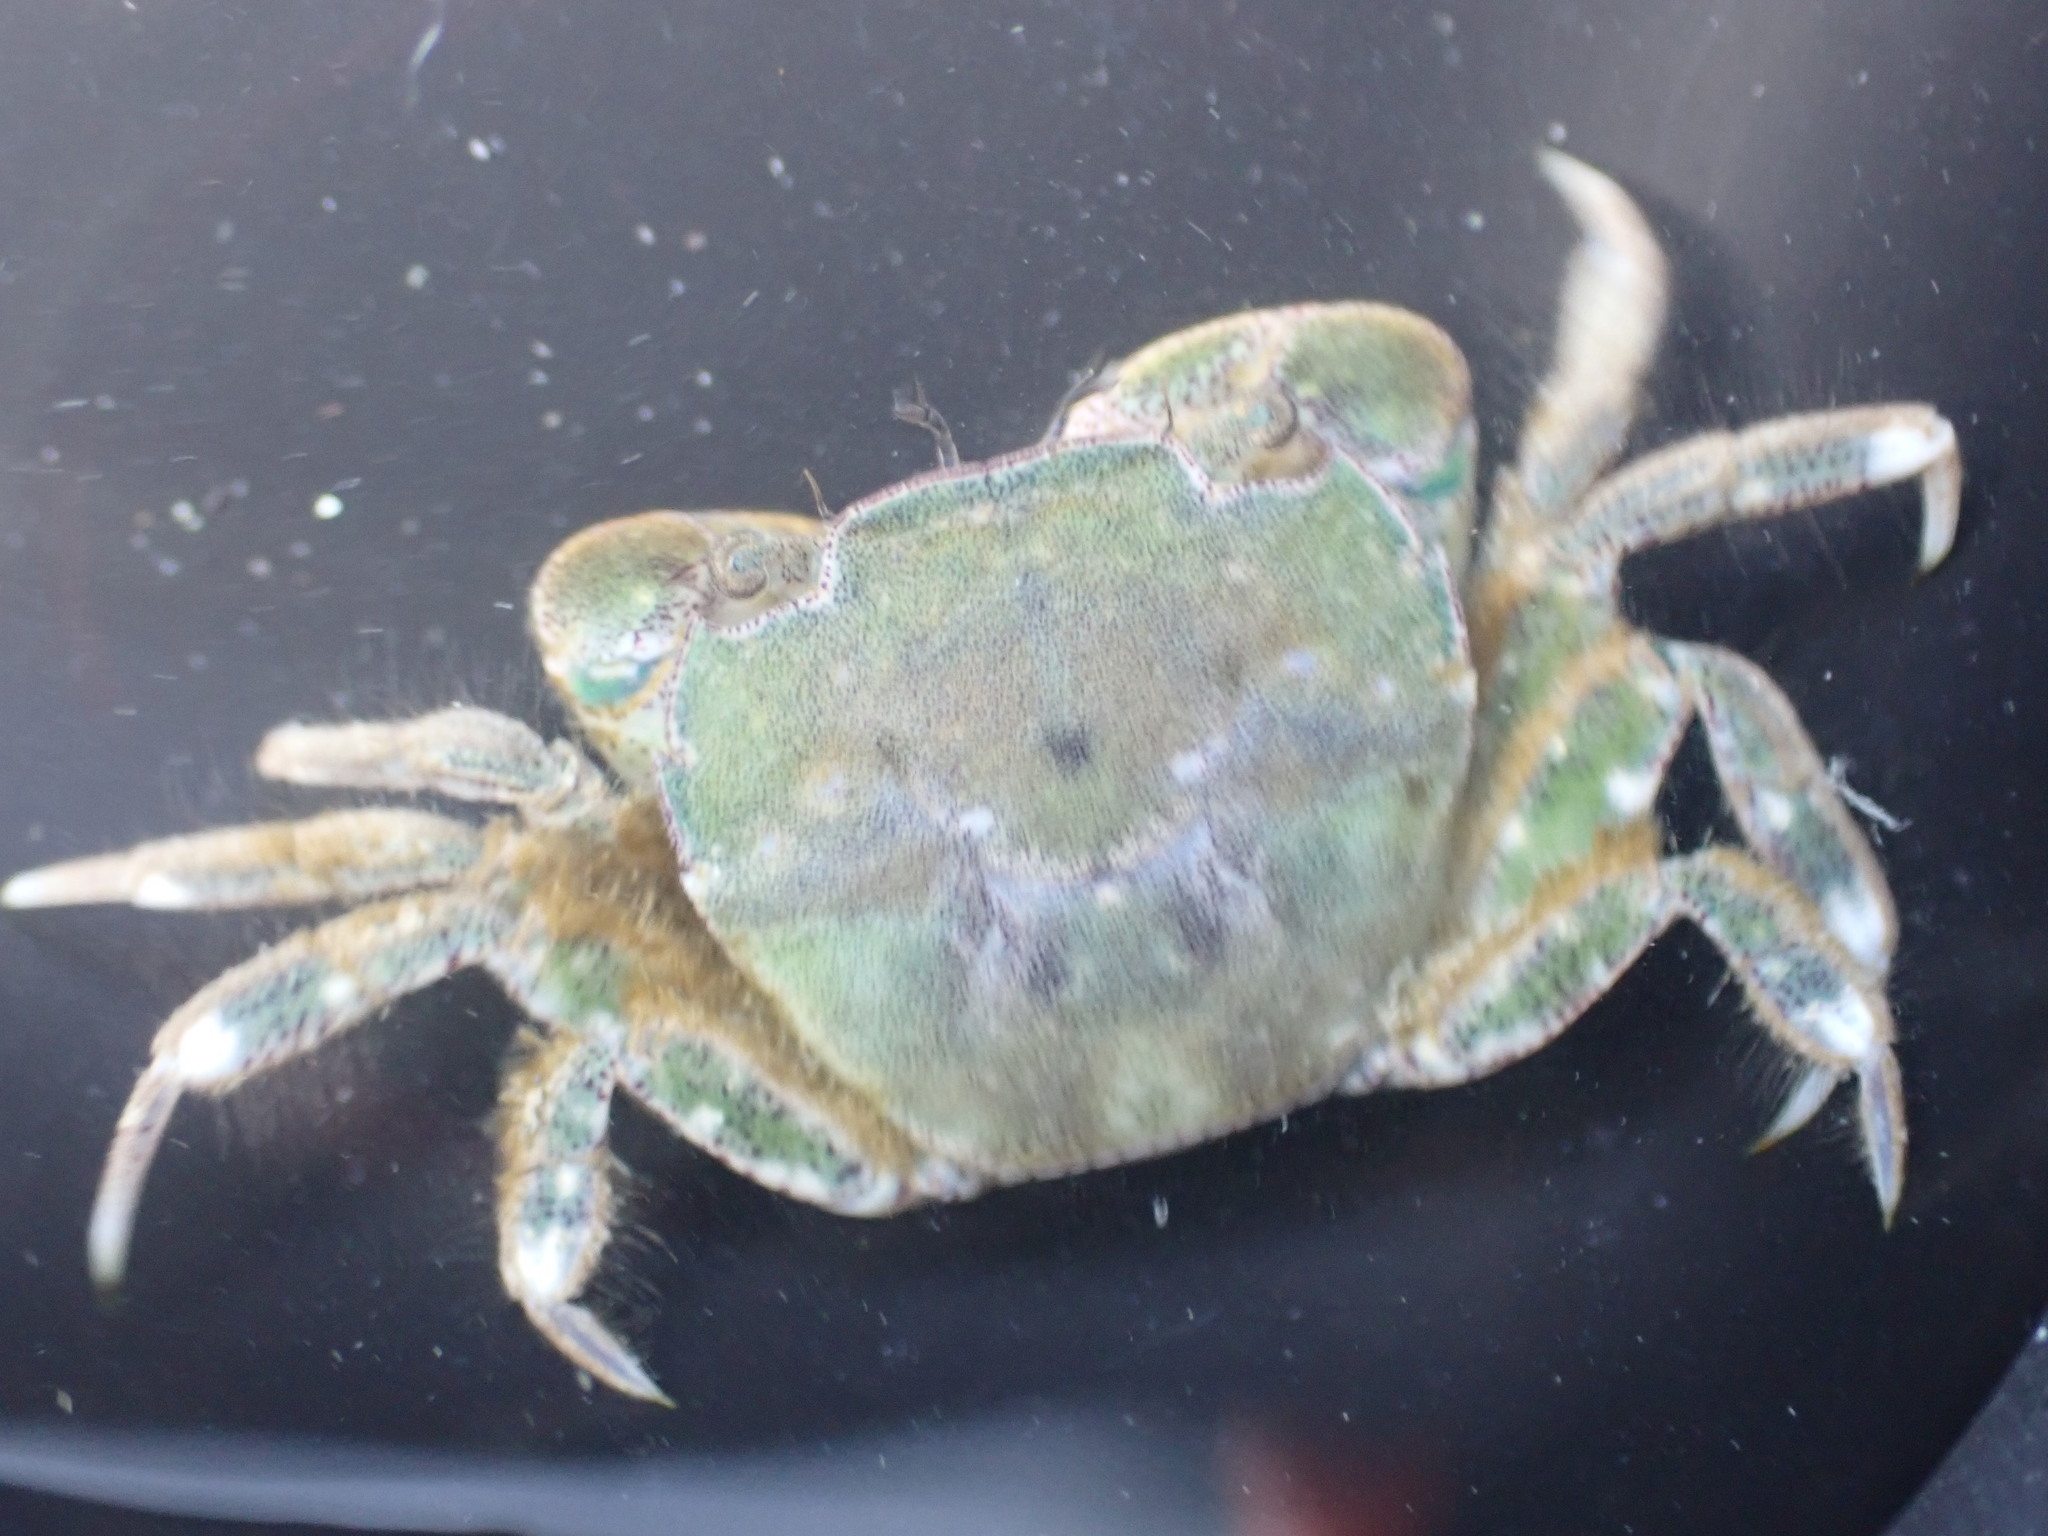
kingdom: Animalia
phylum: Arthropoda
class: Malacostraca
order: Decapoda
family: Varunidae
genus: Hemigrapsus
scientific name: Hemigrapsus crenulatus
